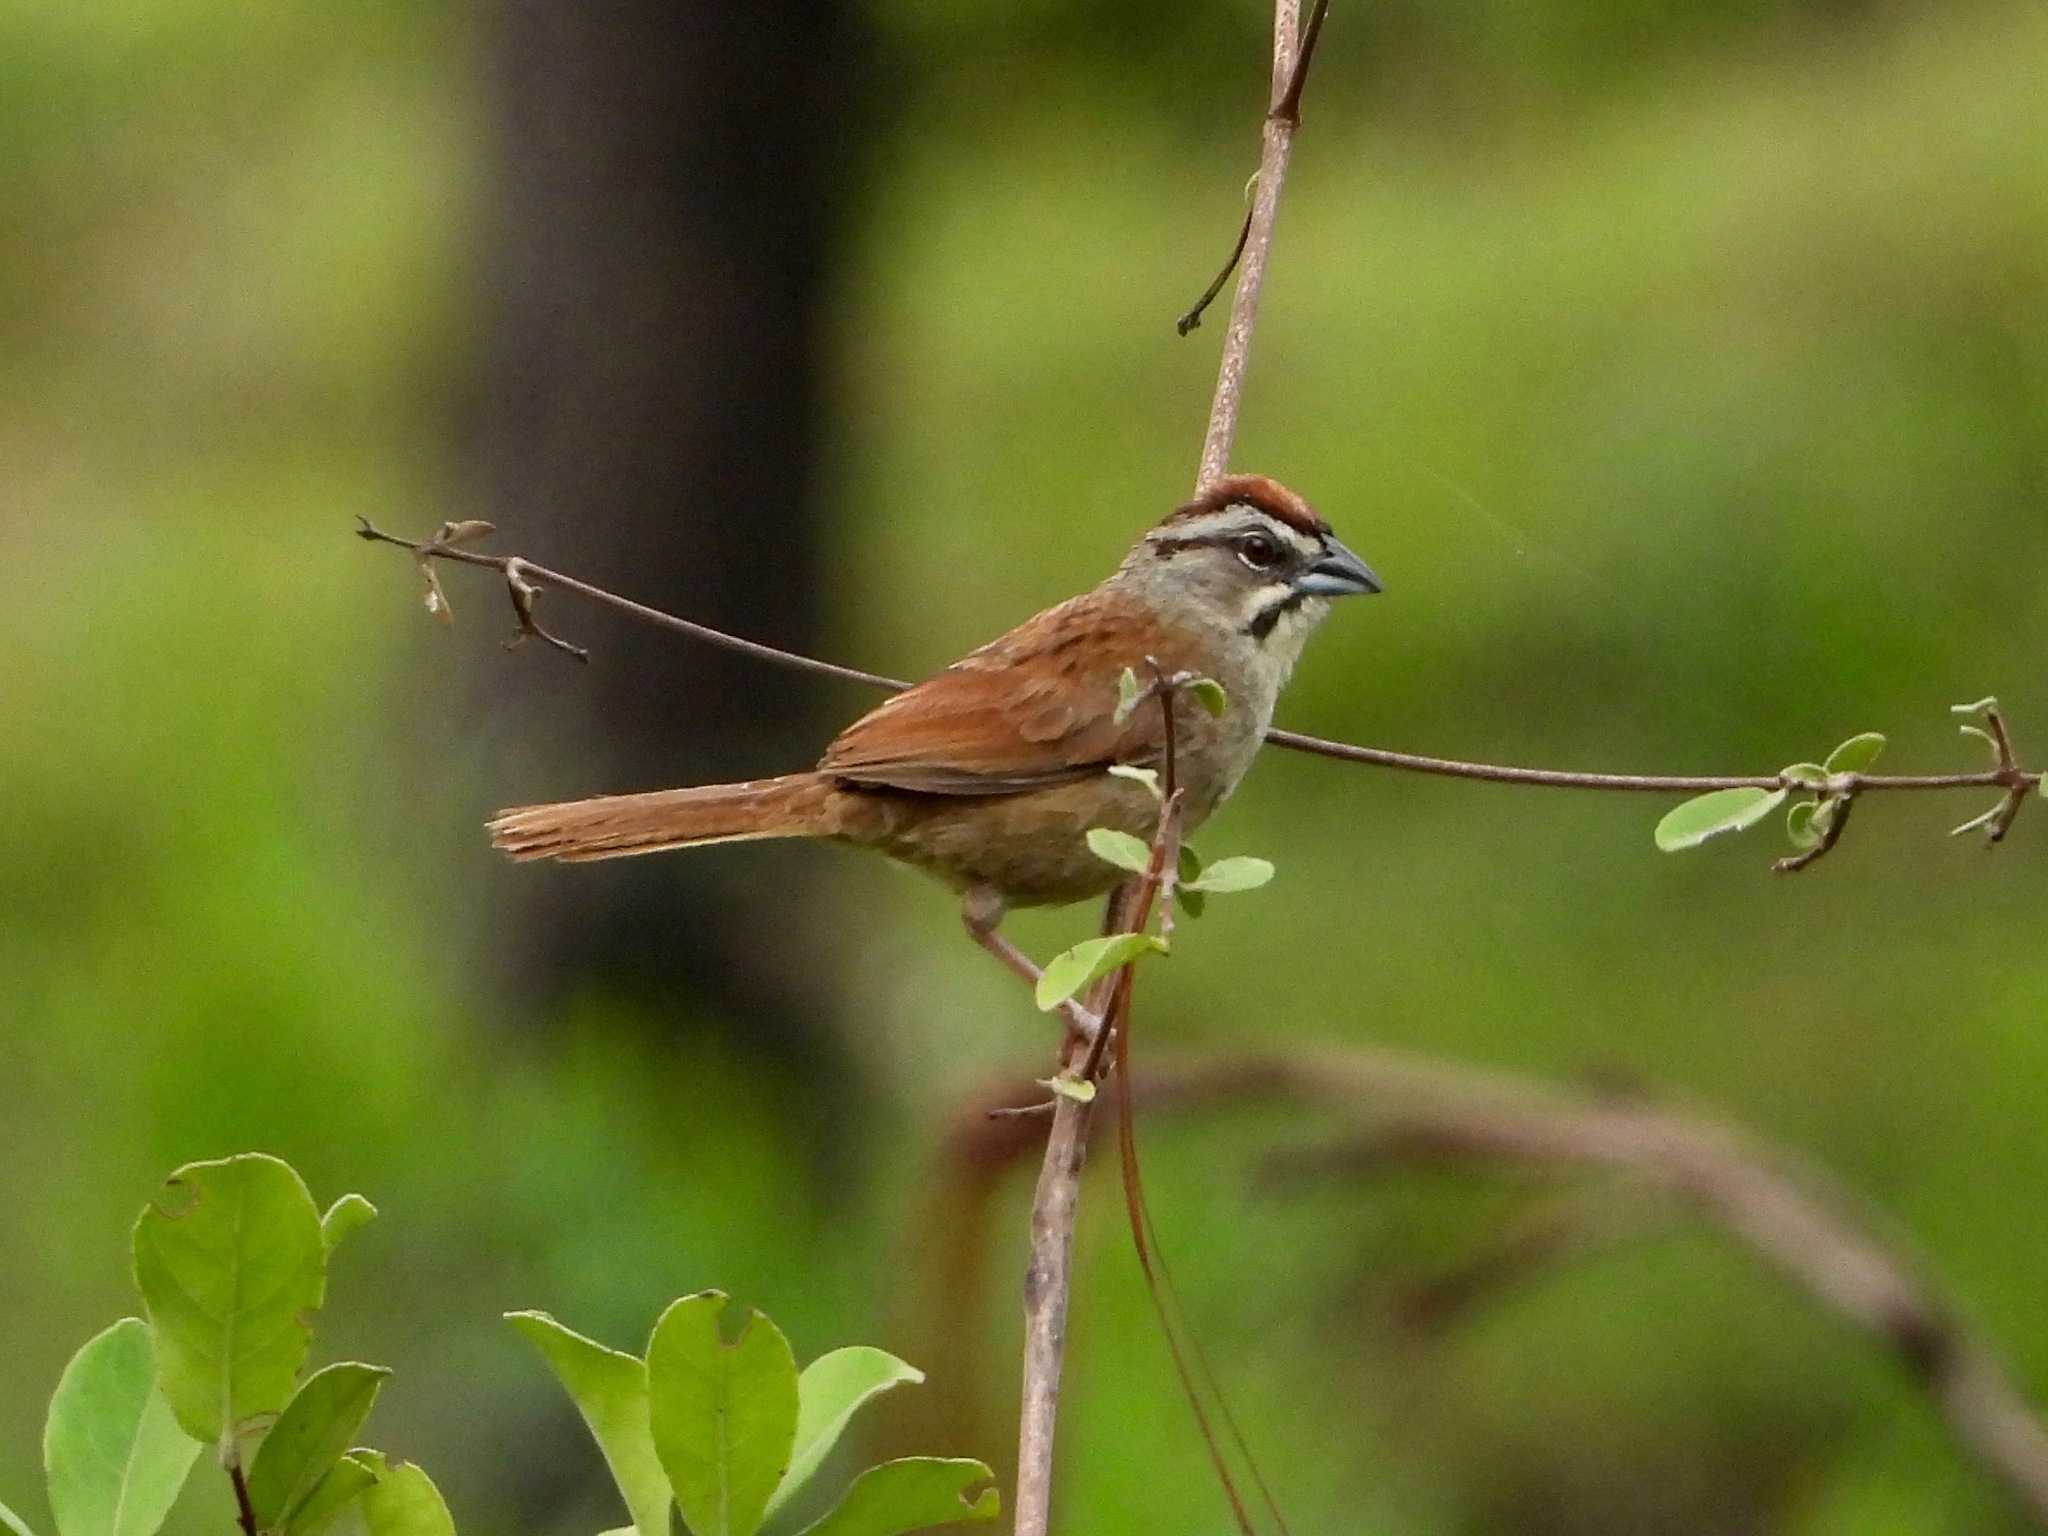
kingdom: Animalia
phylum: Chordata
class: Aves
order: Passeriformes
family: Passerellidae
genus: Aimophila
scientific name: Aimophila rufescens
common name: Rusty sparrow
